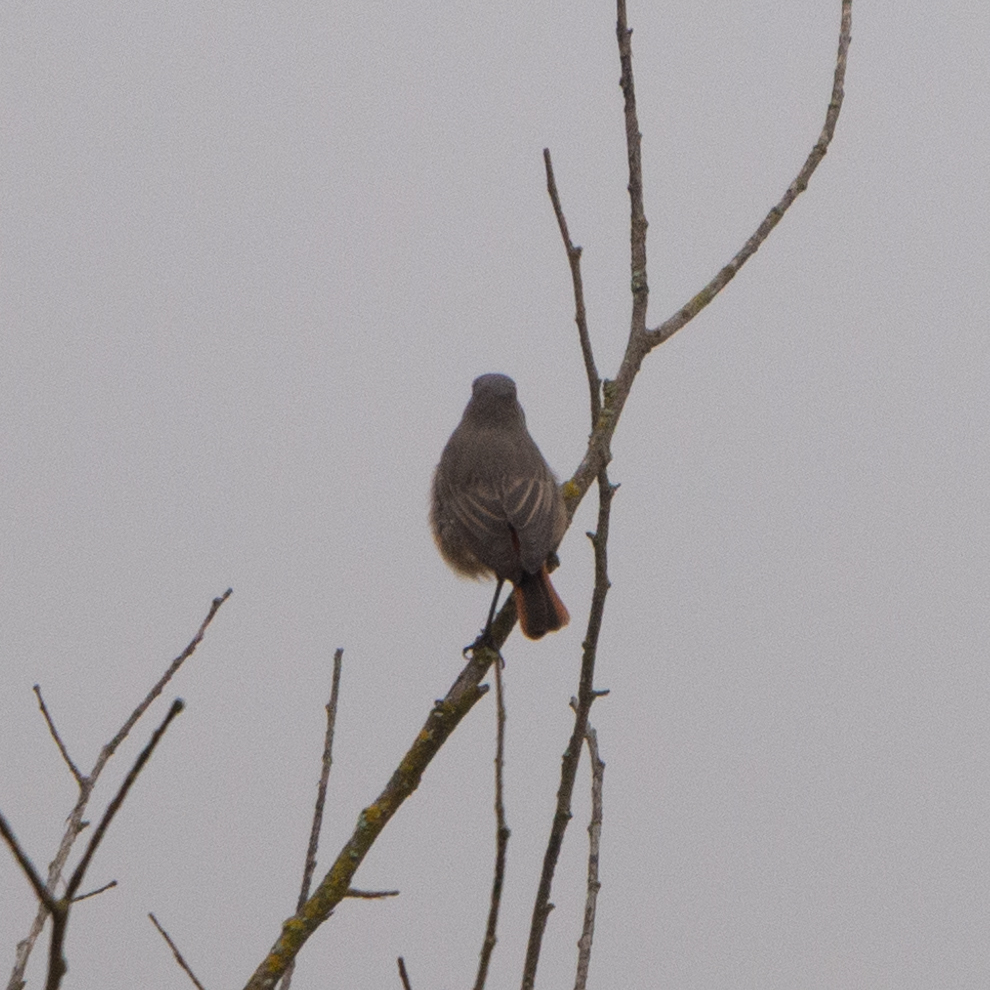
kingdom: Animalia
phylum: Chordata
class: Aves
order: Passeriformes
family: Muscicapidae
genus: Phoenicurus
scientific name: Phoenicurus ochruros
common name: Black redstart
